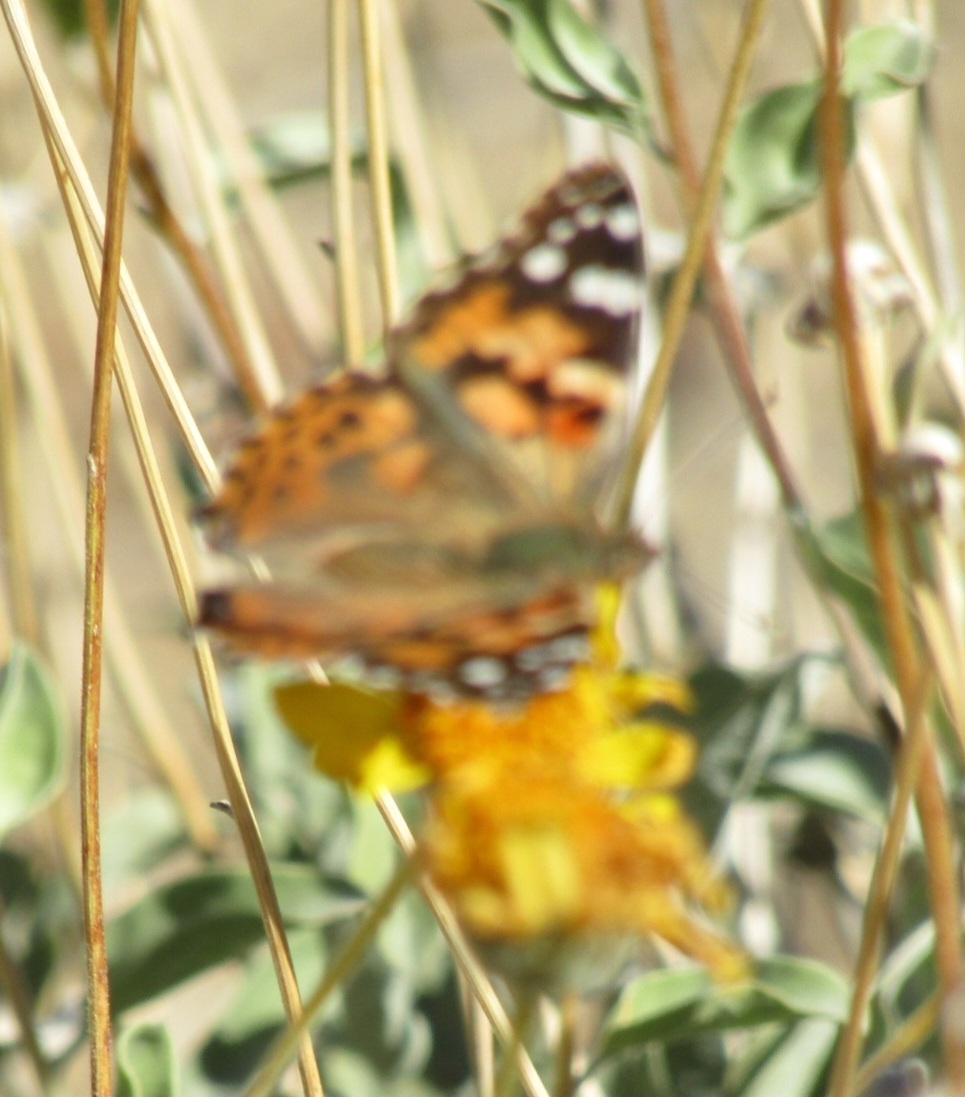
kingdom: Animalia
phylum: Arthropoda
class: Insecta
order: Lepidoptera
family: Nymphalidae
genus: Vanessa
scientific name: Vanessa cardui
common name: Painted lady
